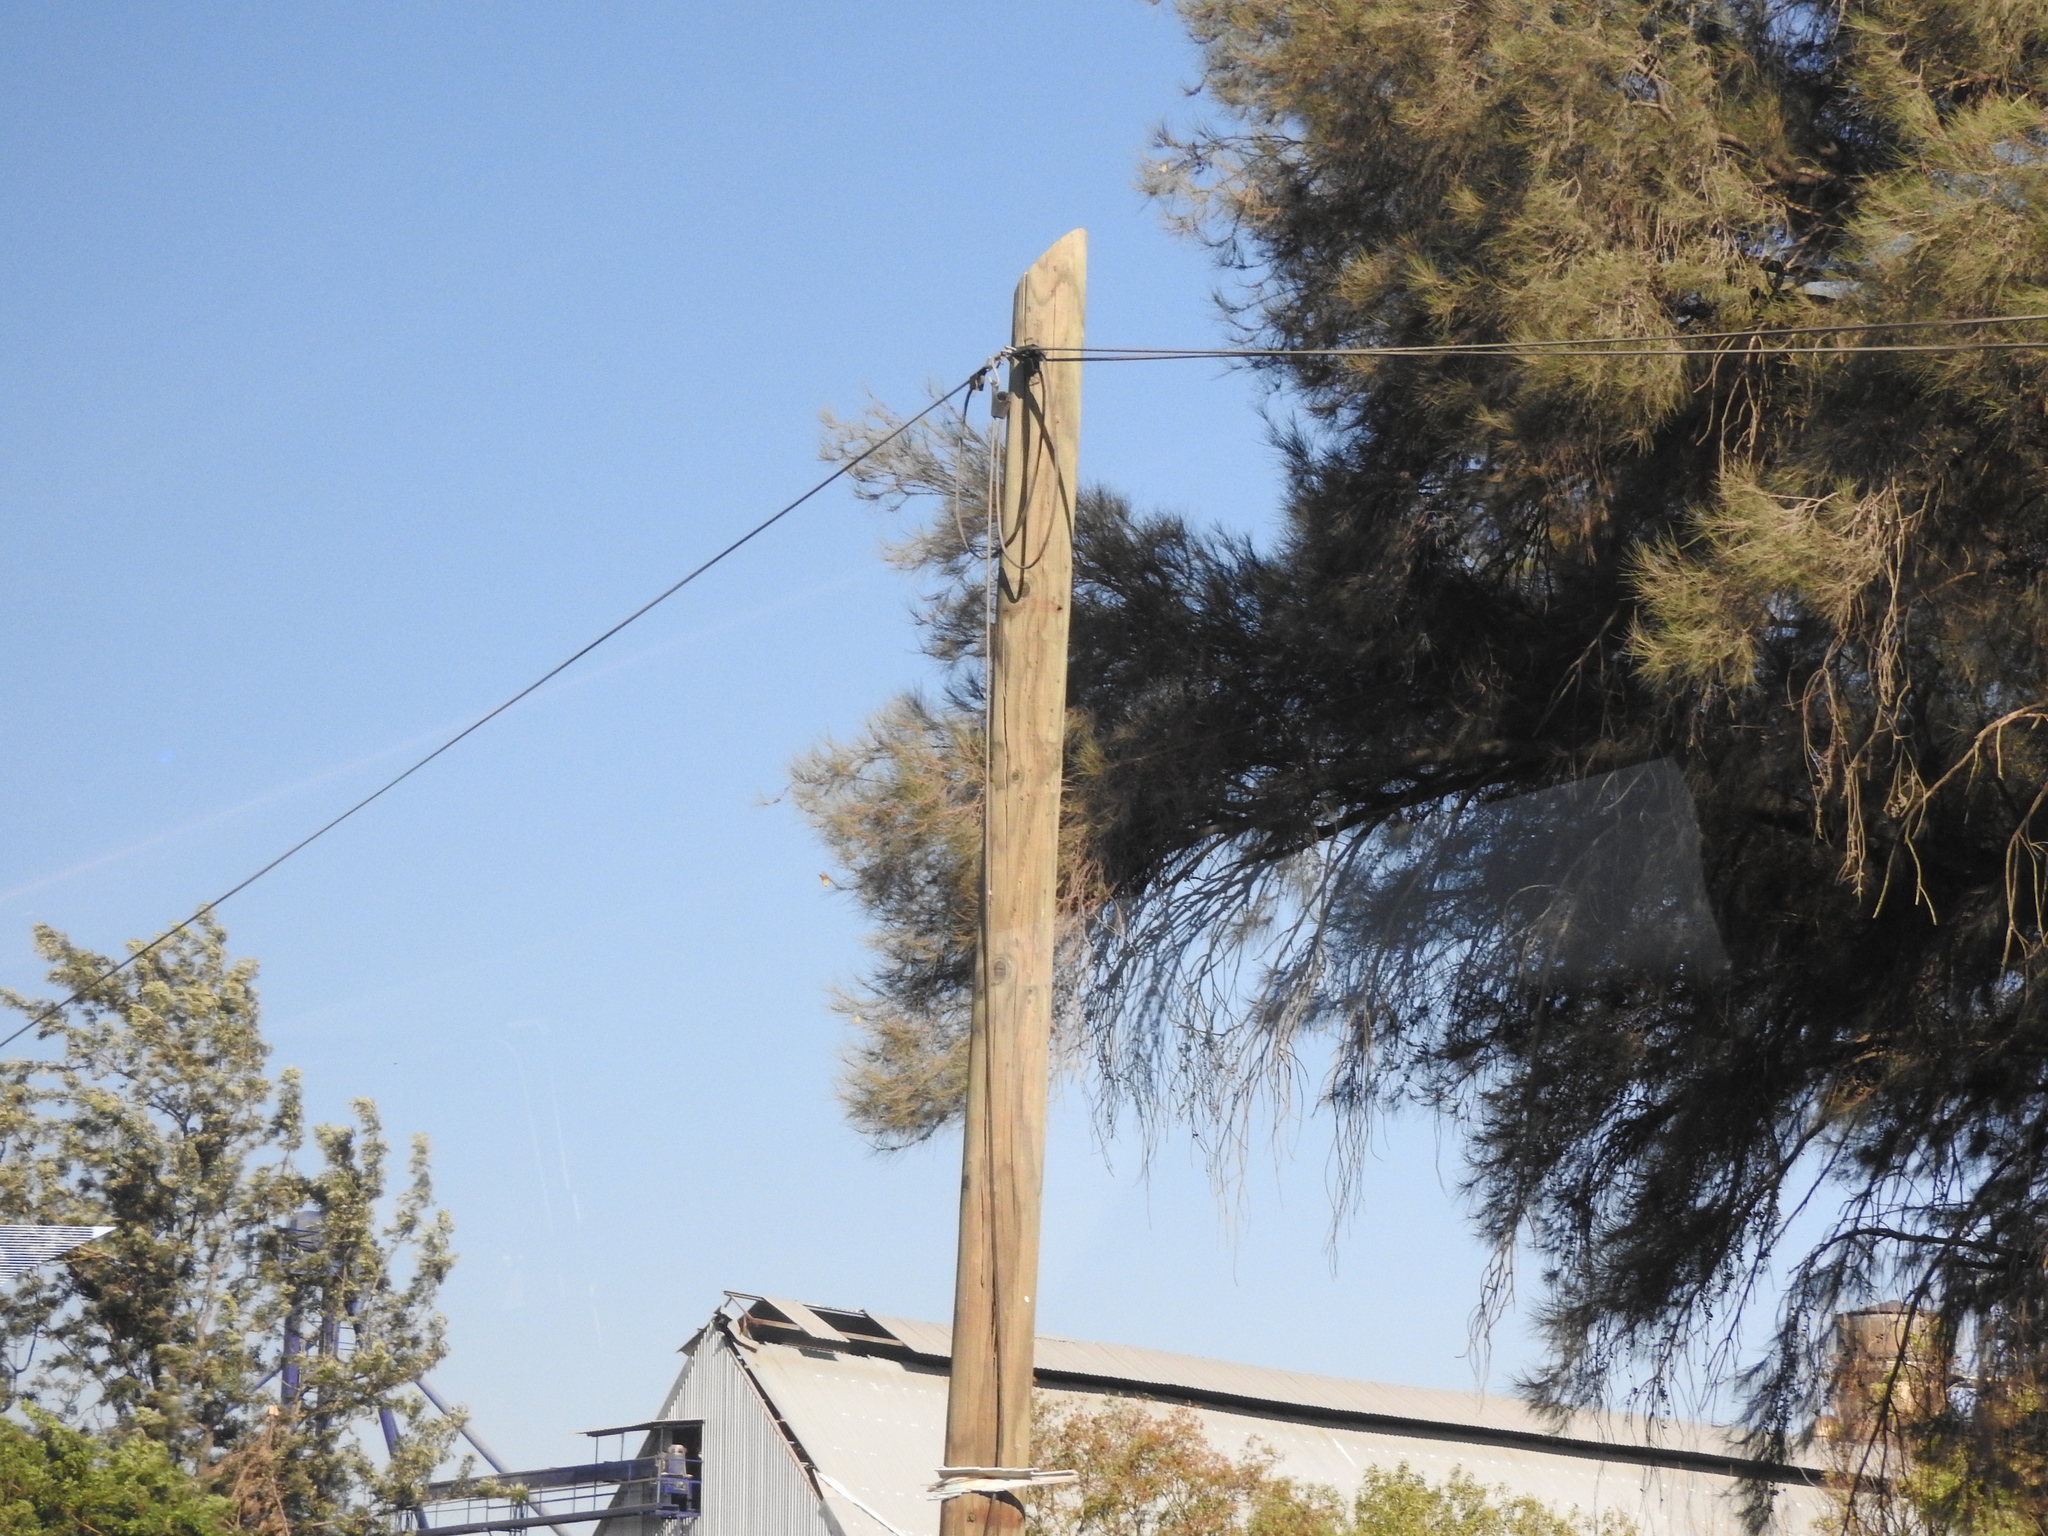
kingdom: Animalia
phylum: Arthropoda
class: Insecta
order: Lepidoptera
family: Nymphalidae
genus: Danaus
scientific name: Danaus plexippus
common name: Monarch
